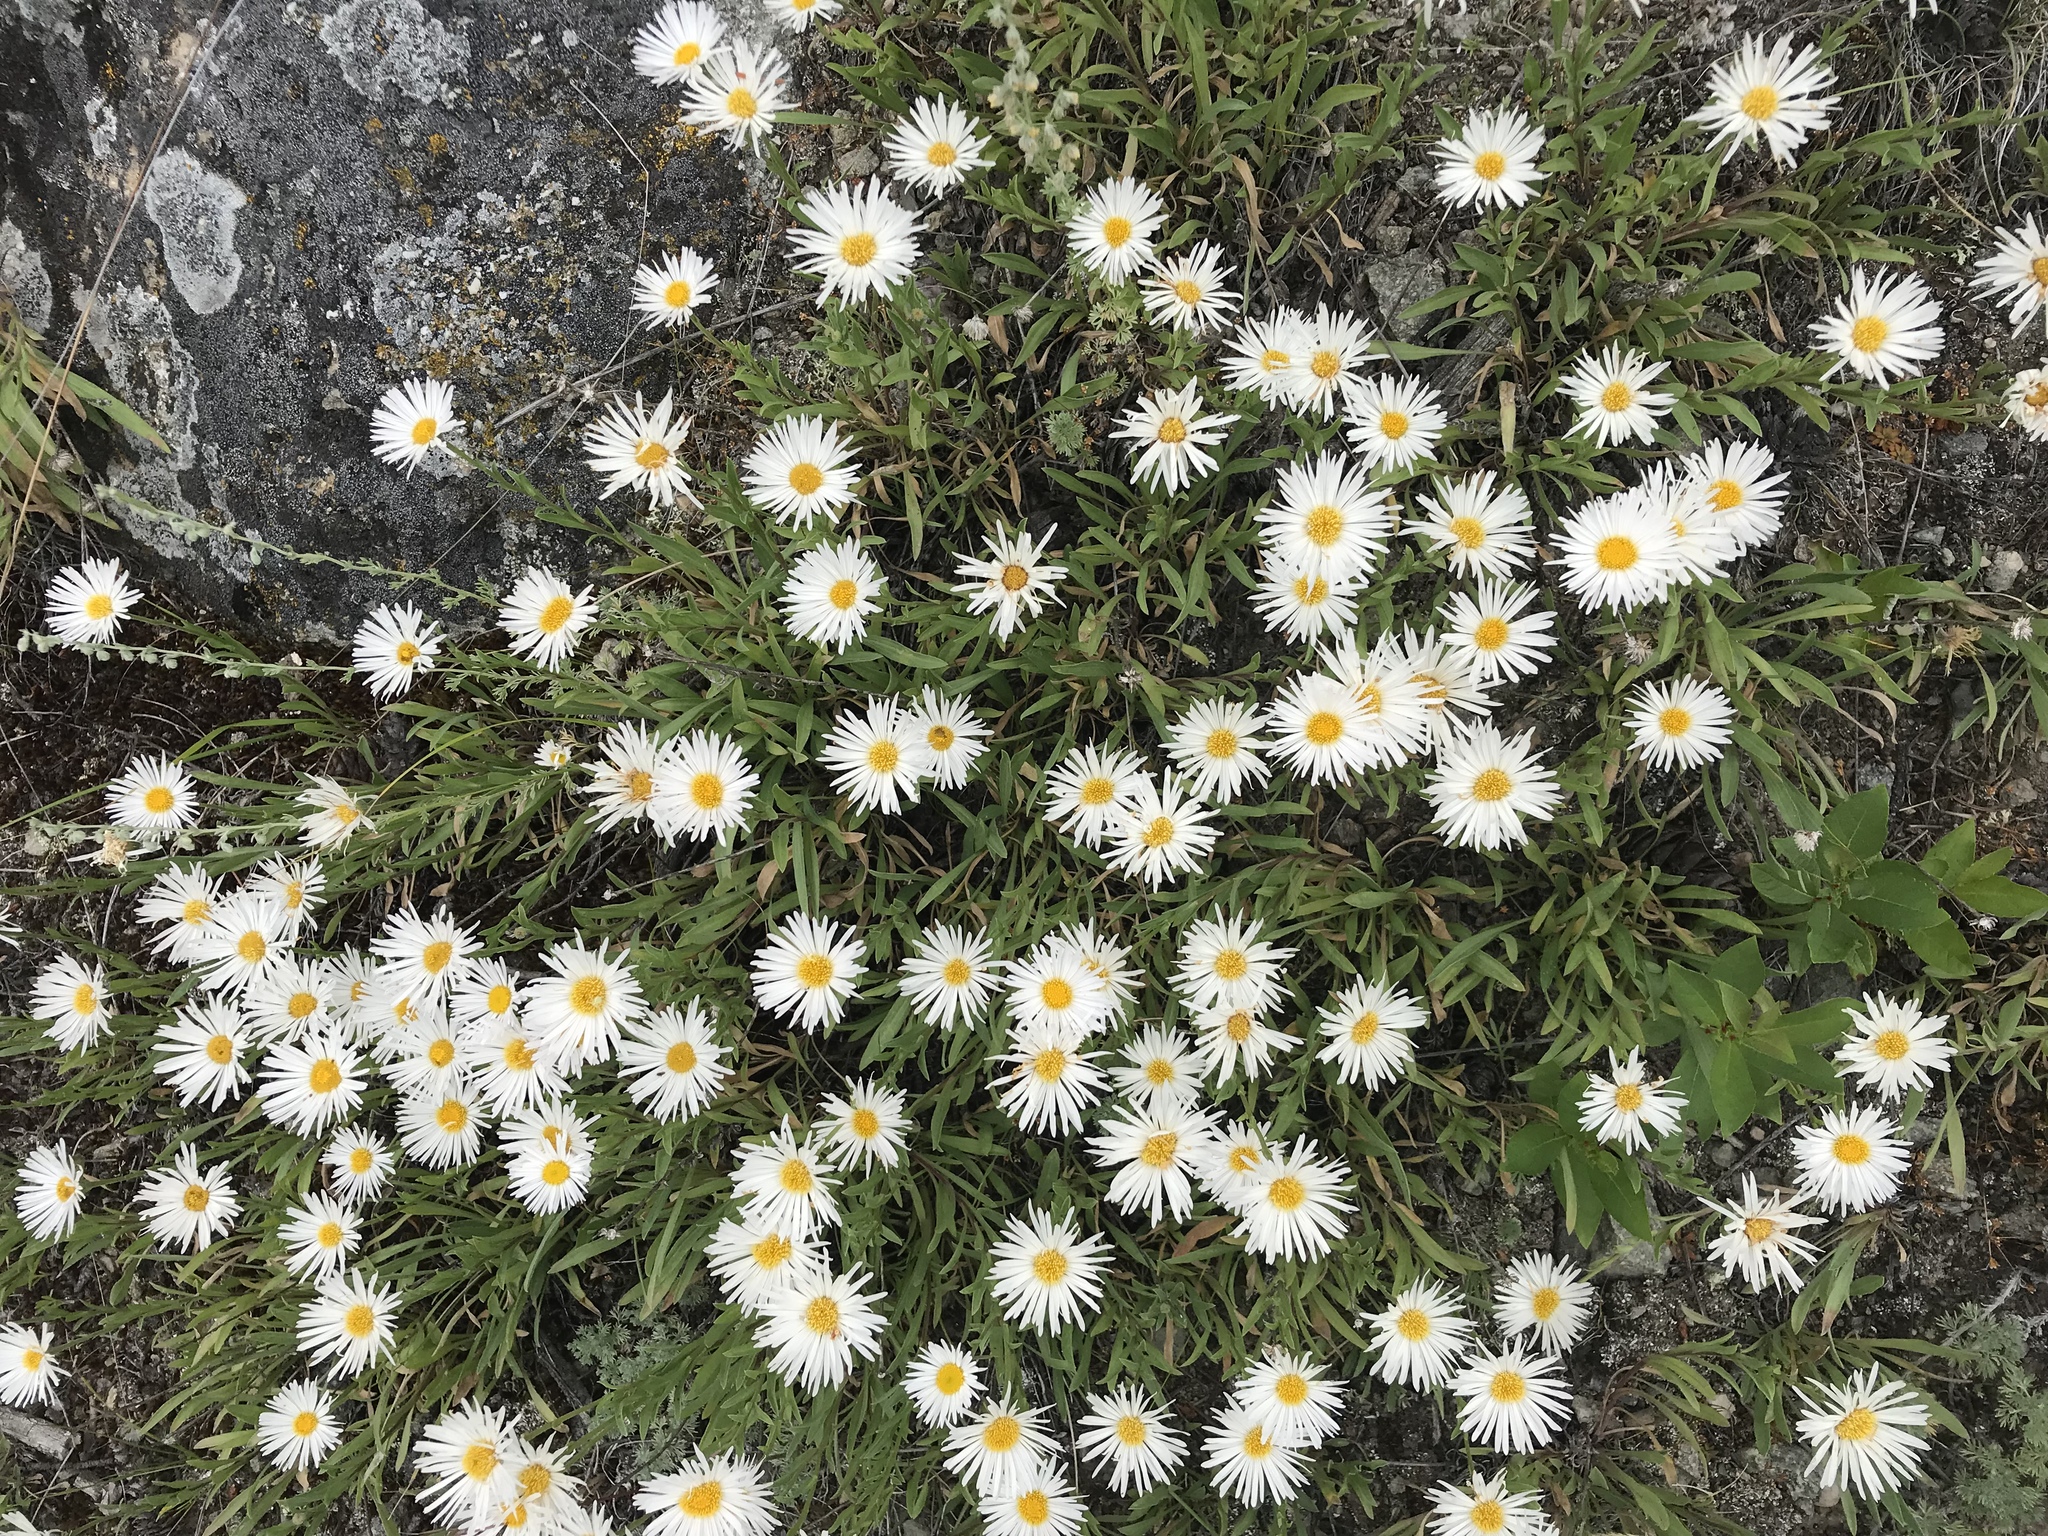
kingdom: Plantae
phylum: Tracheophyta
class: Magnoliopsida
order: Asterales
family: Asteraceae
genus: Erigeron
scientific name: Erigeron caespitosus
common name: Tufted fleabane
